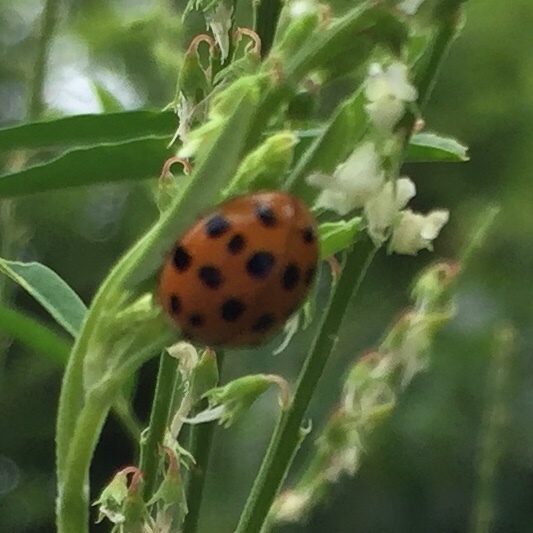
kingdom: Animalia
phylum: Arthropoda
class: Insecta
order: Coleoptera
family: Coccinellidae
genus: Harmonia
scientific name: Harmonia axyridis
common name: Harlequin ladybird
